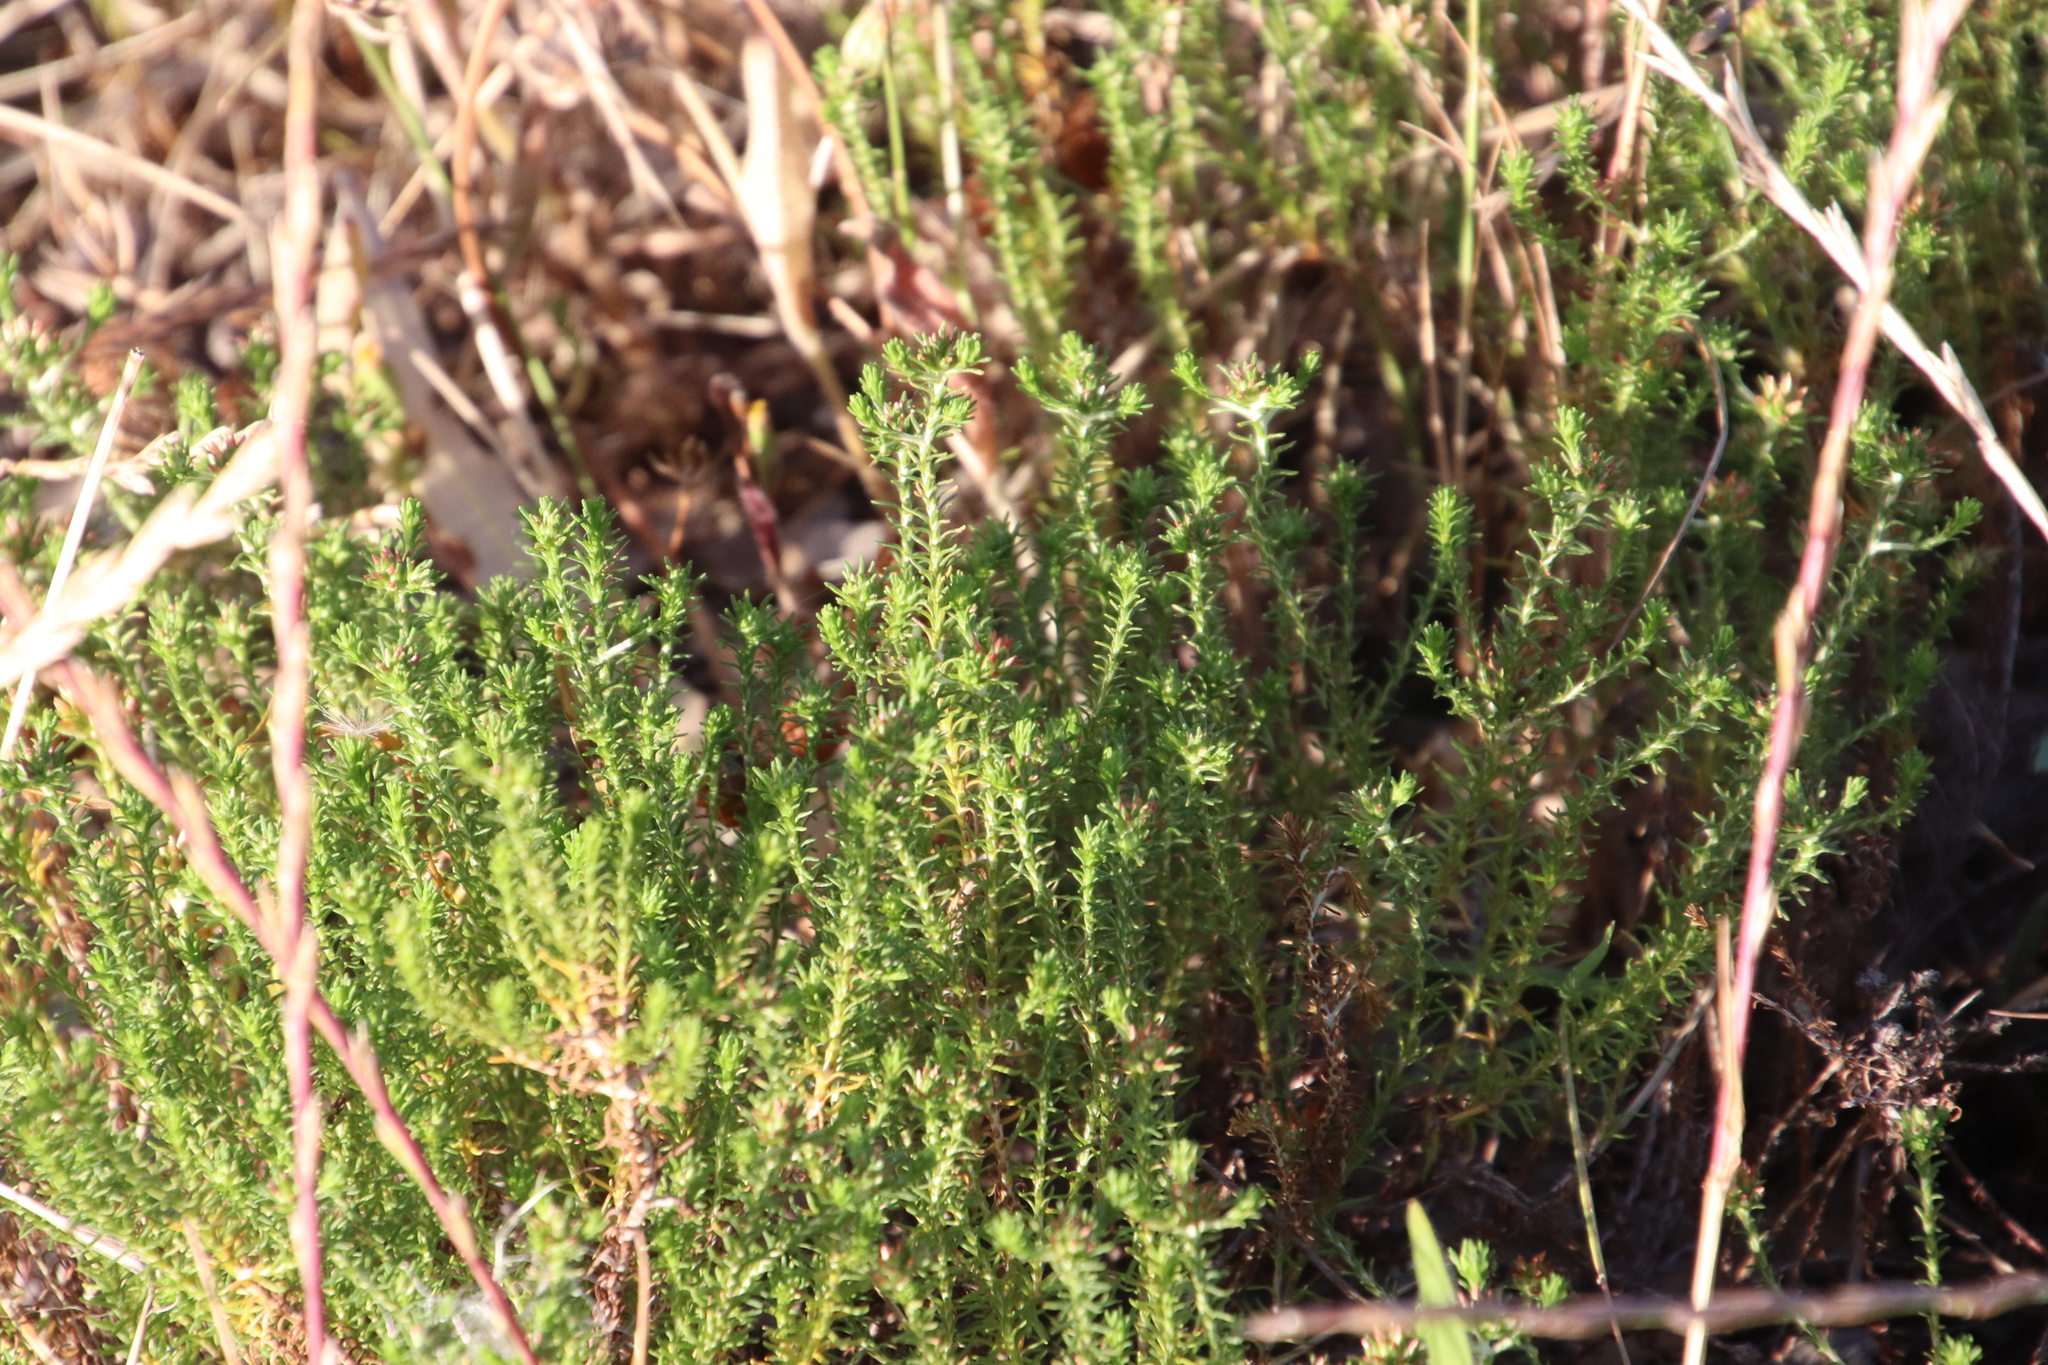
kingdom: Plantae
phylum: Tracheophyta
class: Magnoliopsida
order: Asterales
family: Asteraceae
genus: Helichrysum
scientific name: Helichrysum niveum
